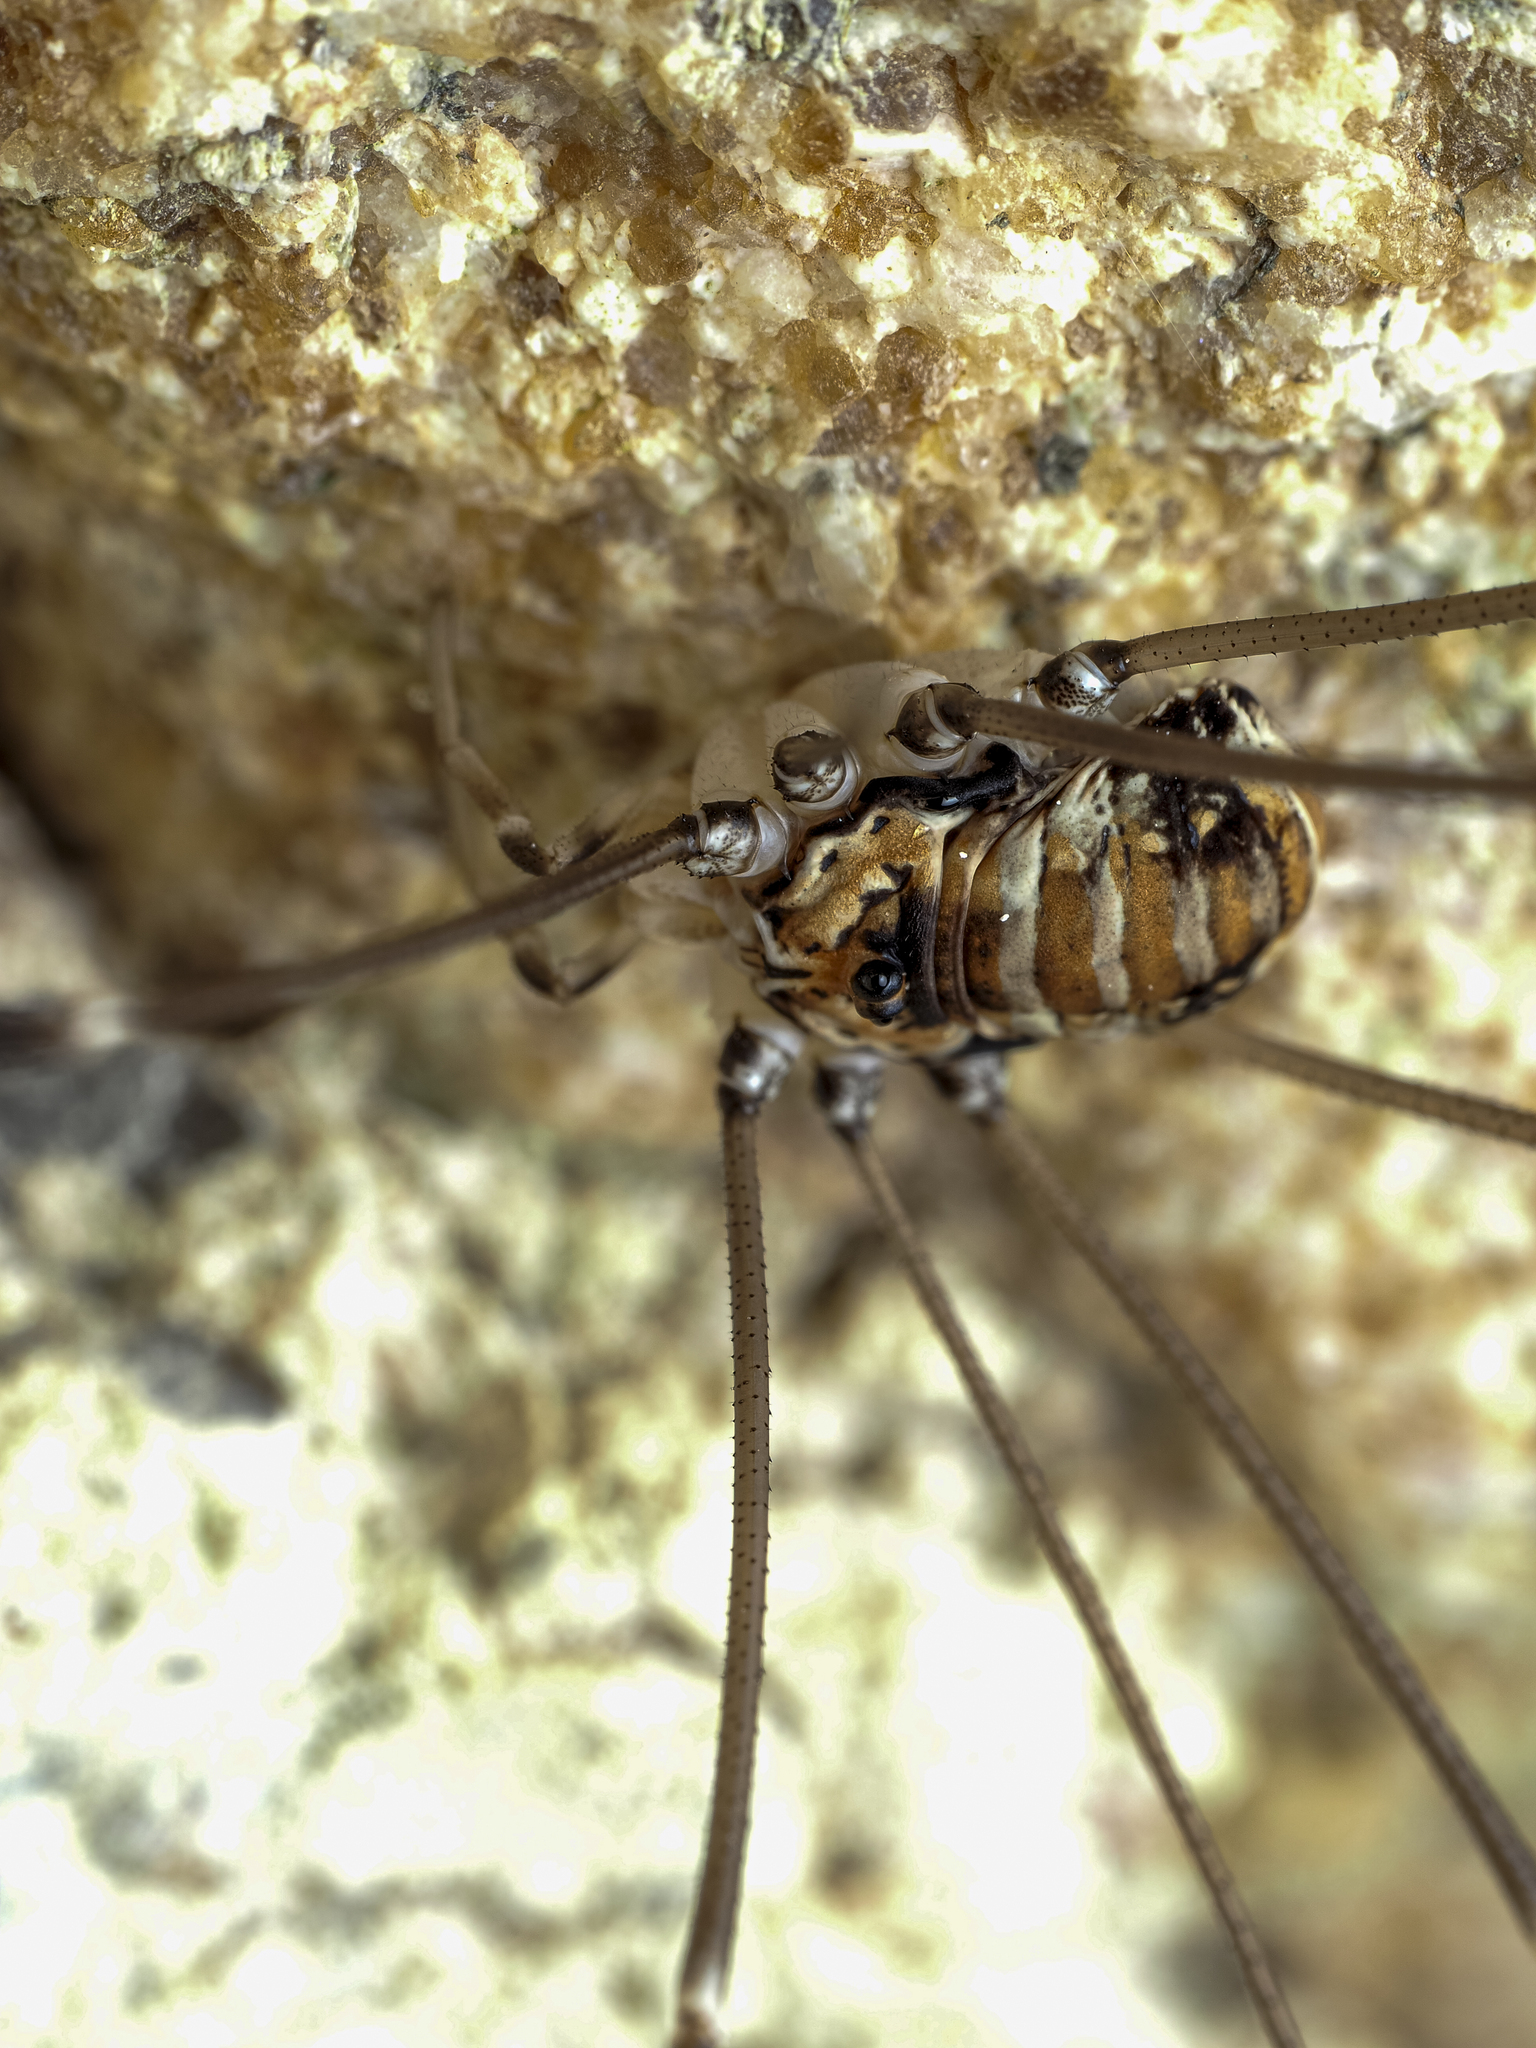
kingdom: Animalia
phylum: Arthropoda
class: Arachnida
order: Opiliones
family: Sclerosomatidae
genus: Leiobunum
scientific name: Leiobunum limbatum
